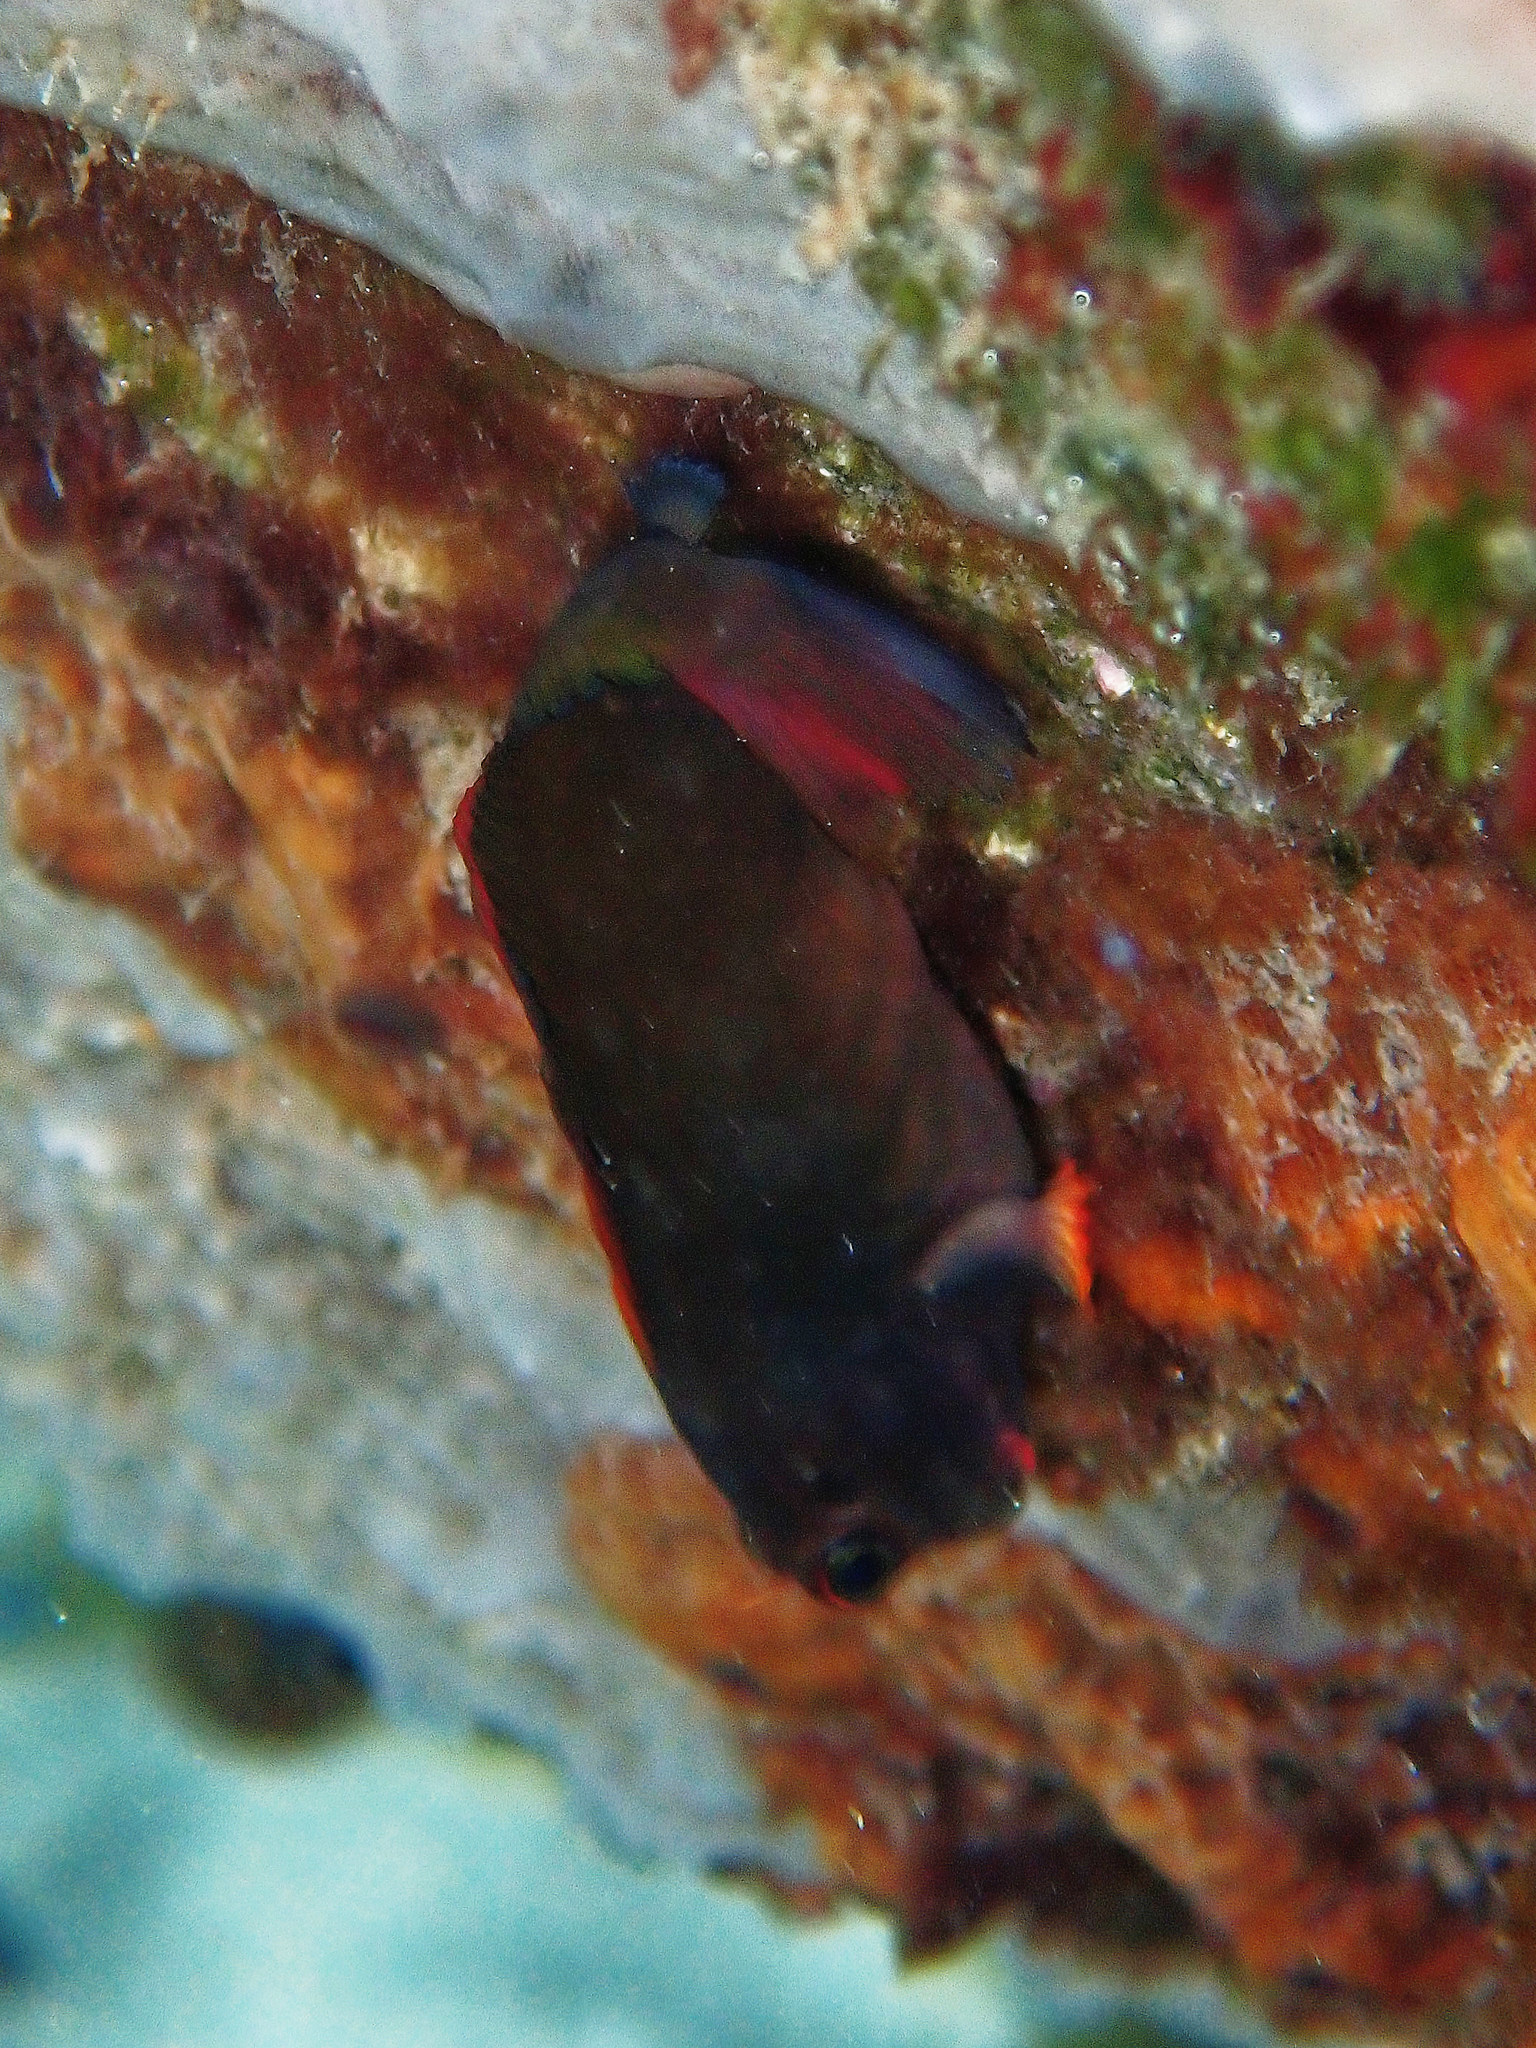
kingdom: Animalia
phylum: Chordata
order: Perciformes
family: Blenniidae
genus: Ophioblennius
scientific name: Ophioblennius macclurei
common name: Redlip blenny
